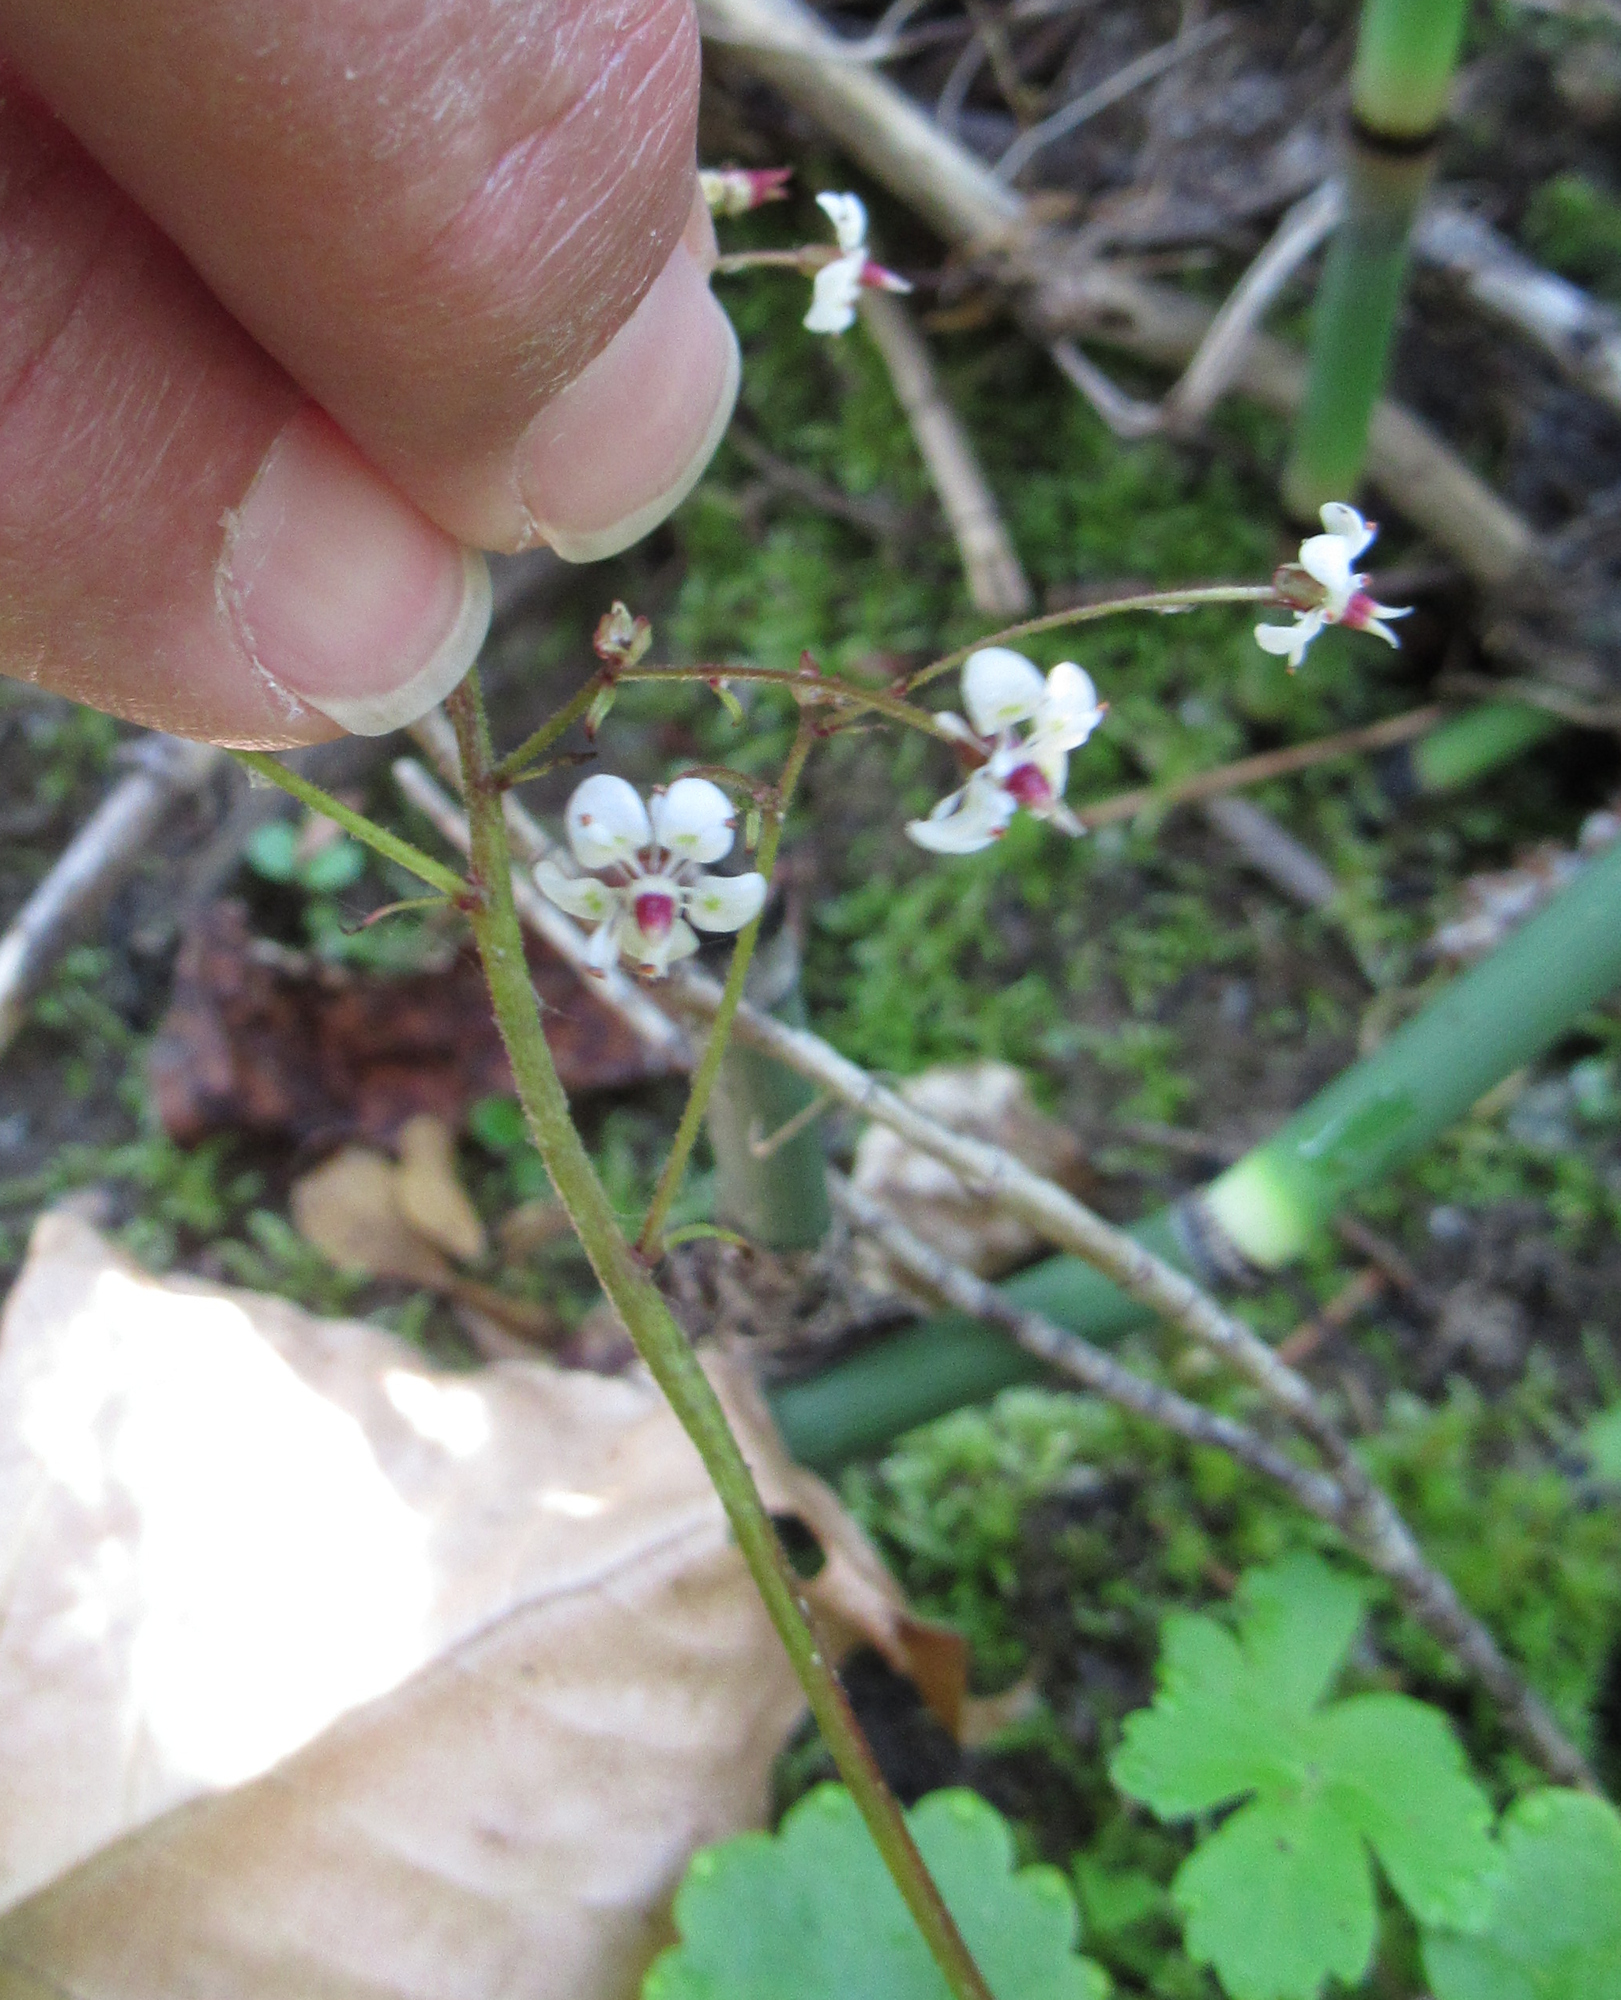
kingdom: Plantae
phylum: Tracheophyta
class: Magnoliopsida
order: Saxifragales
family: Saxifragaceae
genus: Micranthes
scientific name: Micranthes odontoloma
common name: Brook saxifrage
